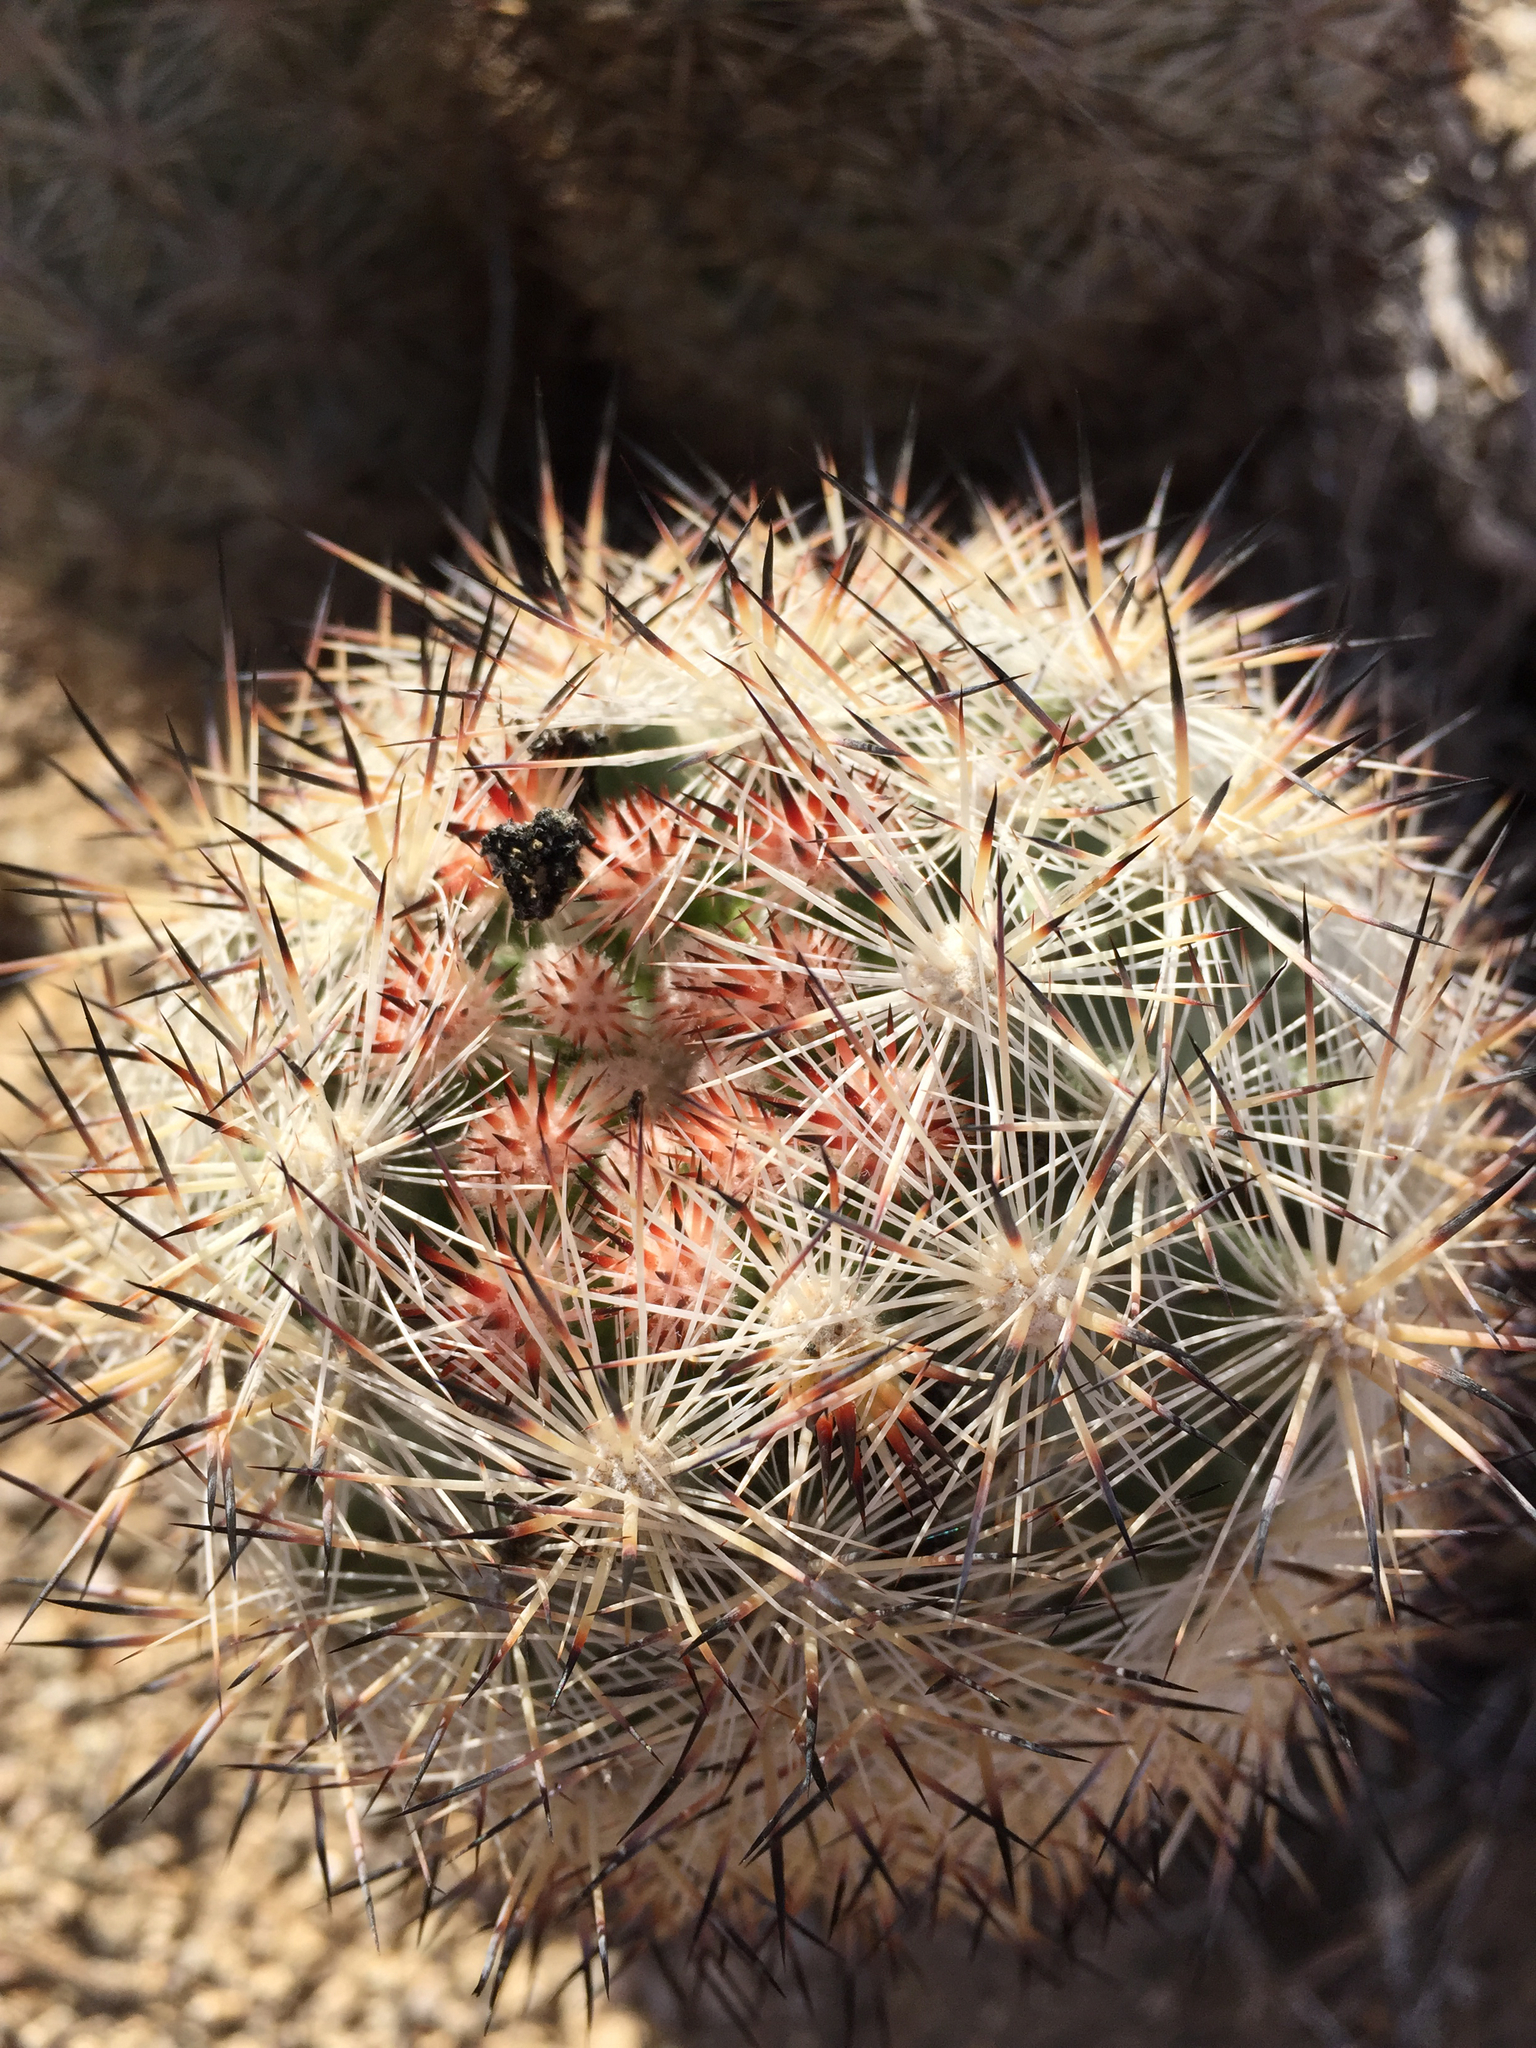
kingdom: Plantae
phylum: Tracheophyta
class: Magnoliopsida
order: Caryophyllales
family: Cactaceae
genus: Pelecyphora
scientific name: Pelecyphora alversonii
